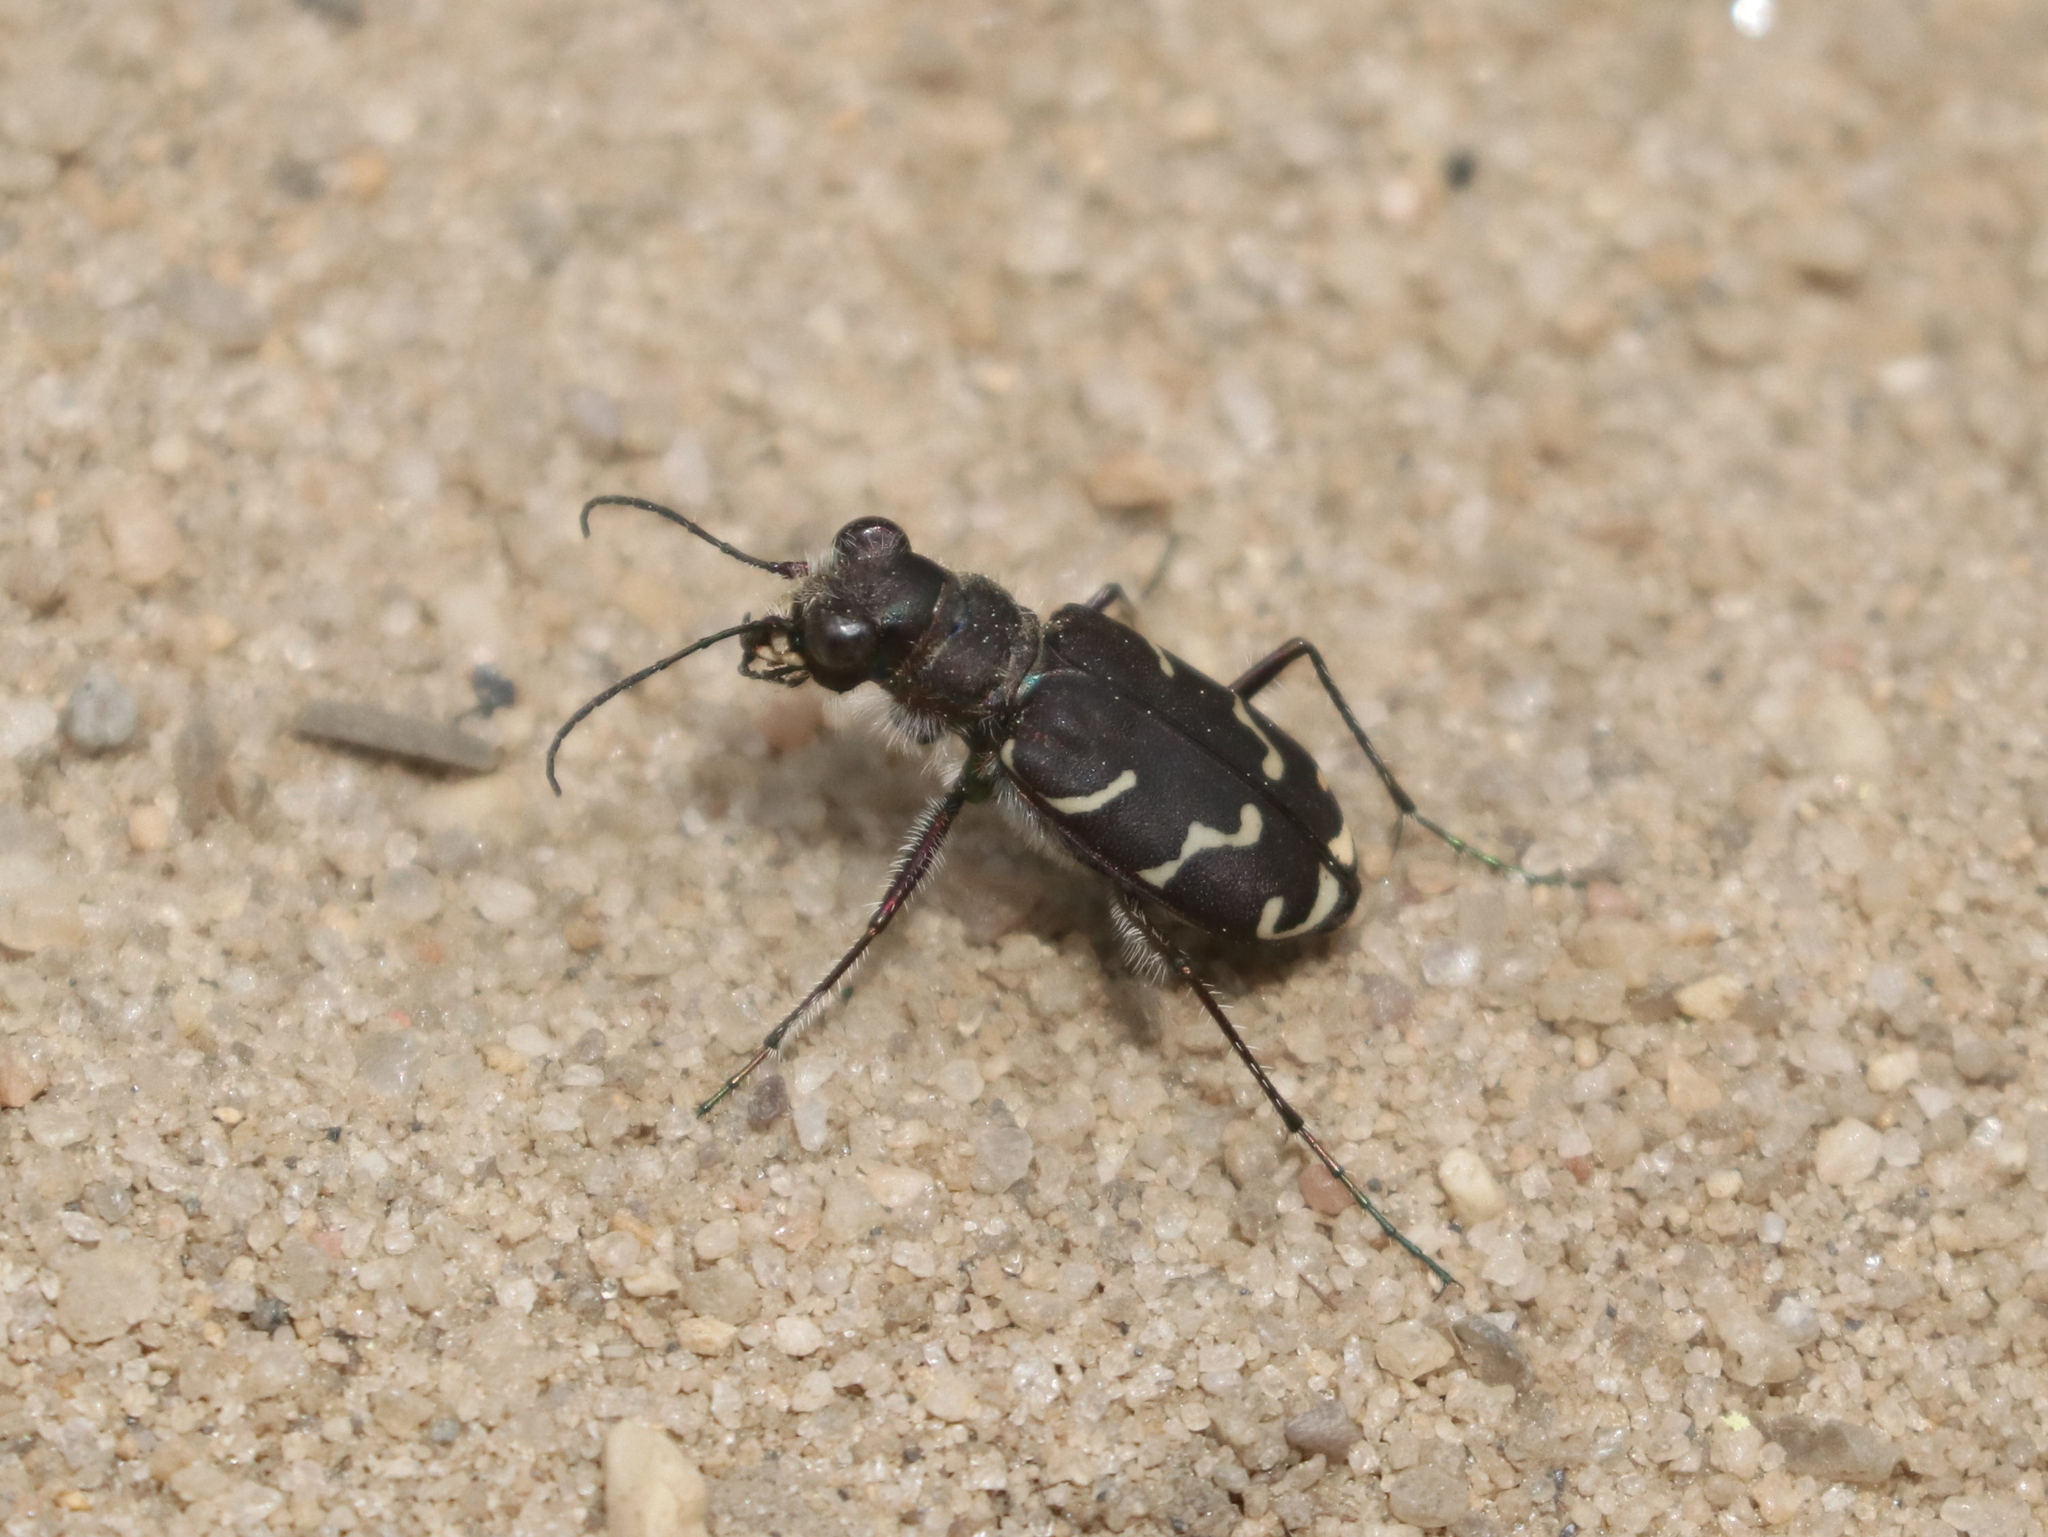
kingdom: Animalia
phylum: Arthropoda
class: Insecta
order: Coleoptera
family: Carabidae
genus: Cicindela
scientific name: Cicindela tranquebarica
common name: Oblique-lined tiger beetle
